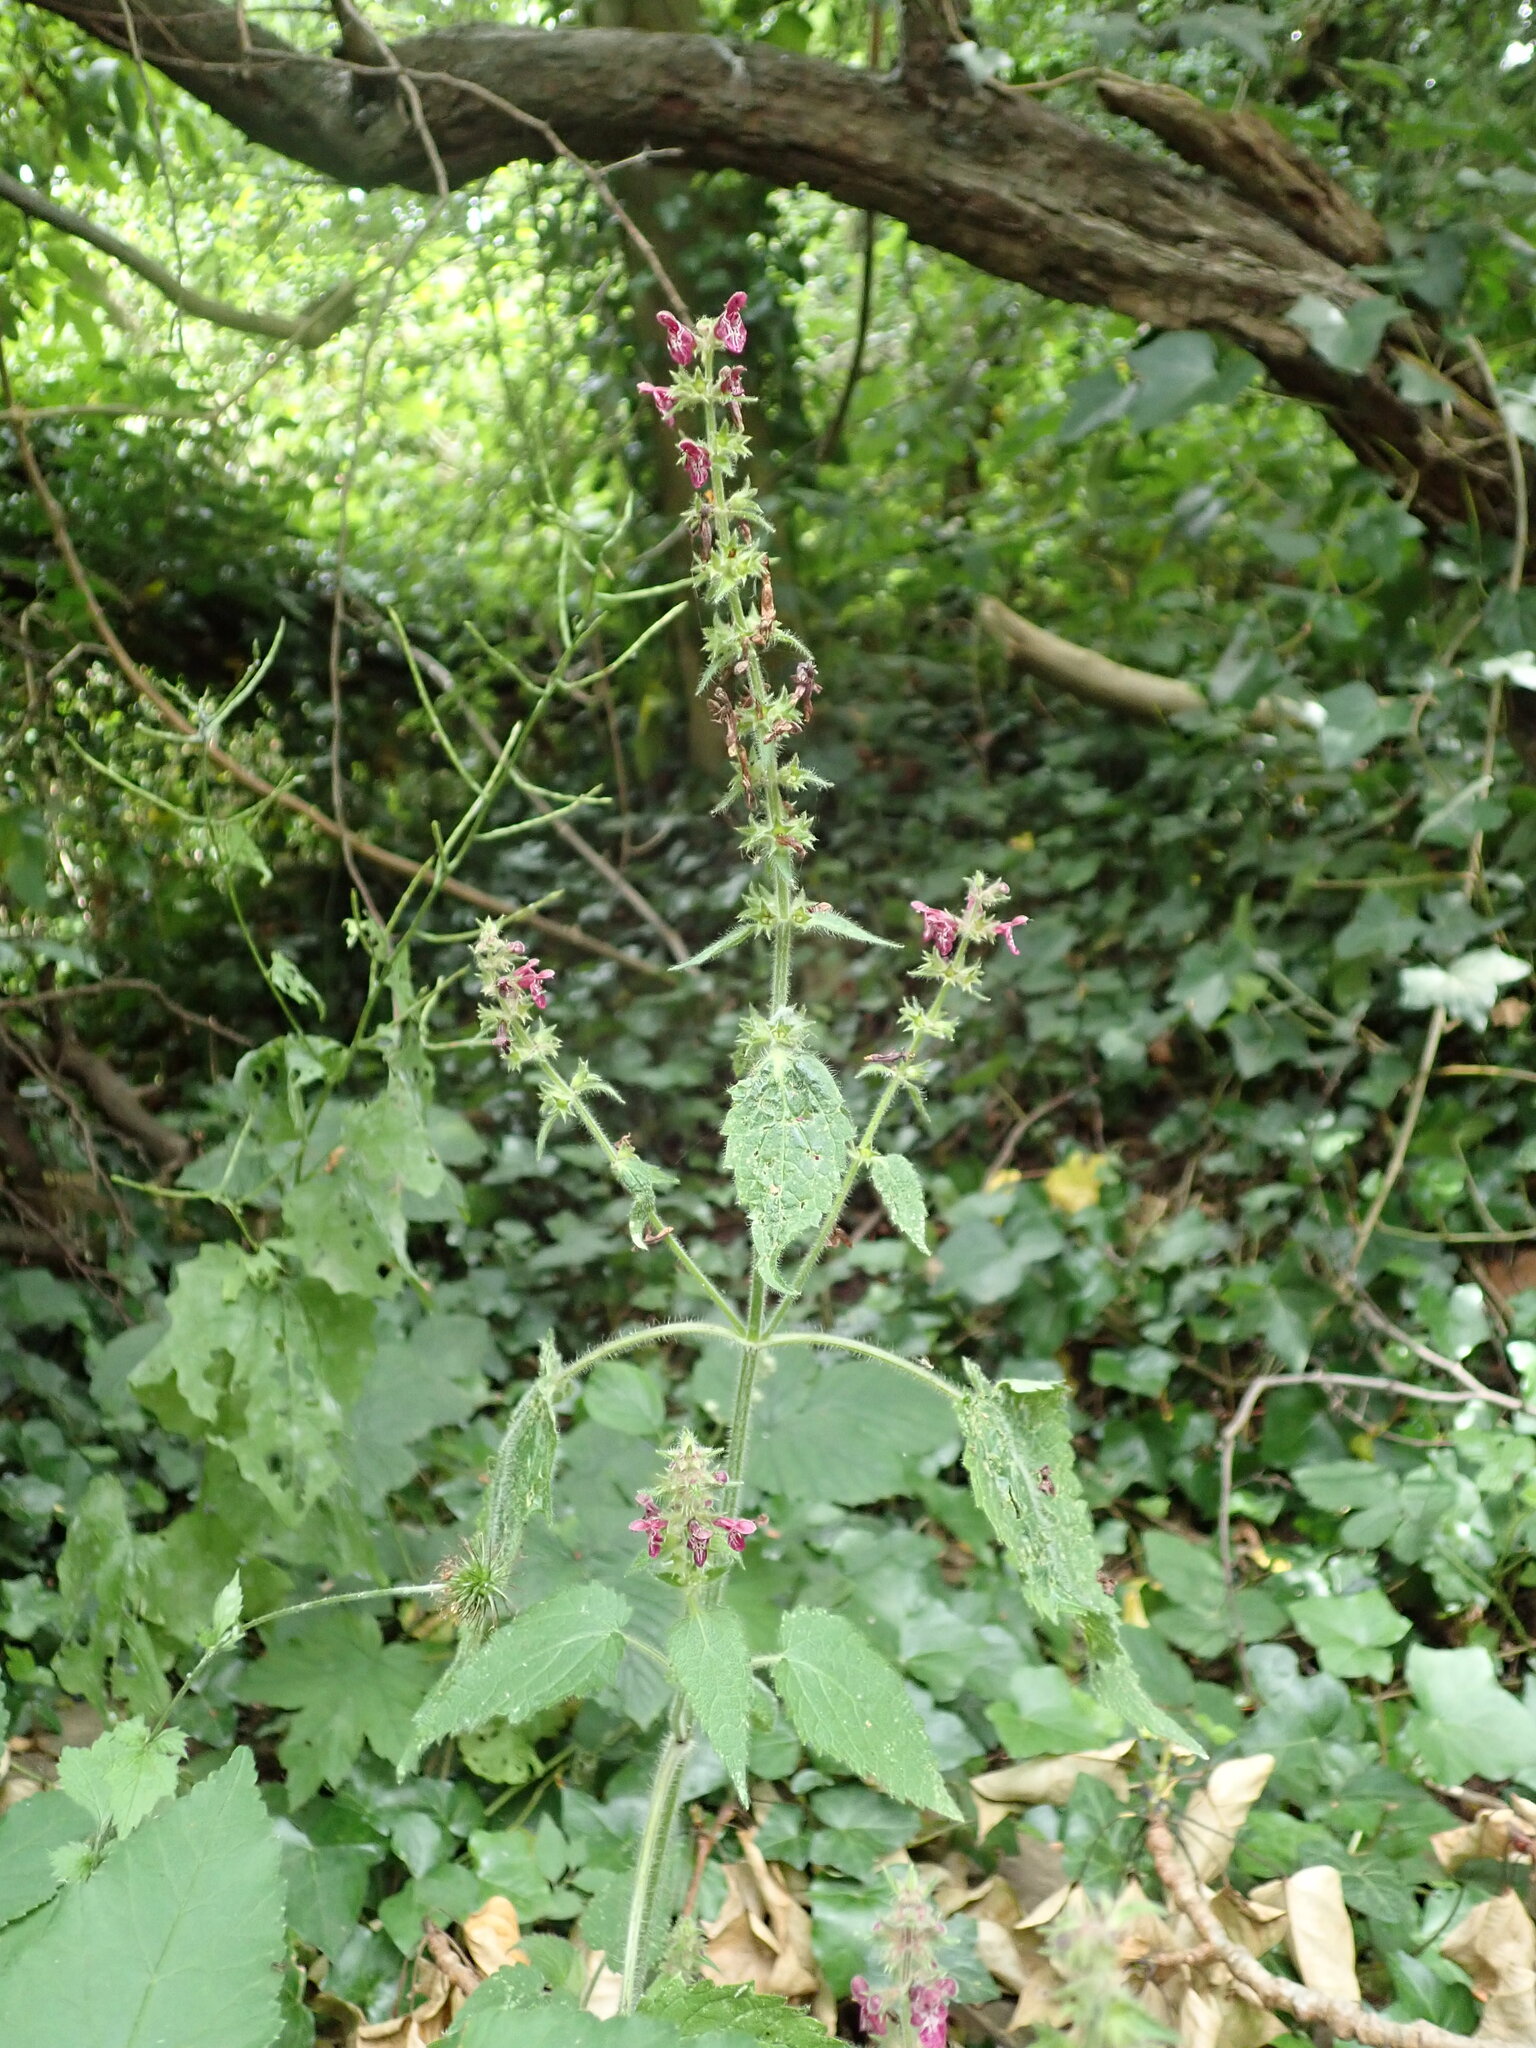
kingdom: Plantae
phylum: Tracheophyta
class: Magnoliopsida
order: Lamiales
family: Lamiaceae
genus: Stachys
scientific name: Stachys sylvatica
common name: Hedge woundwort
